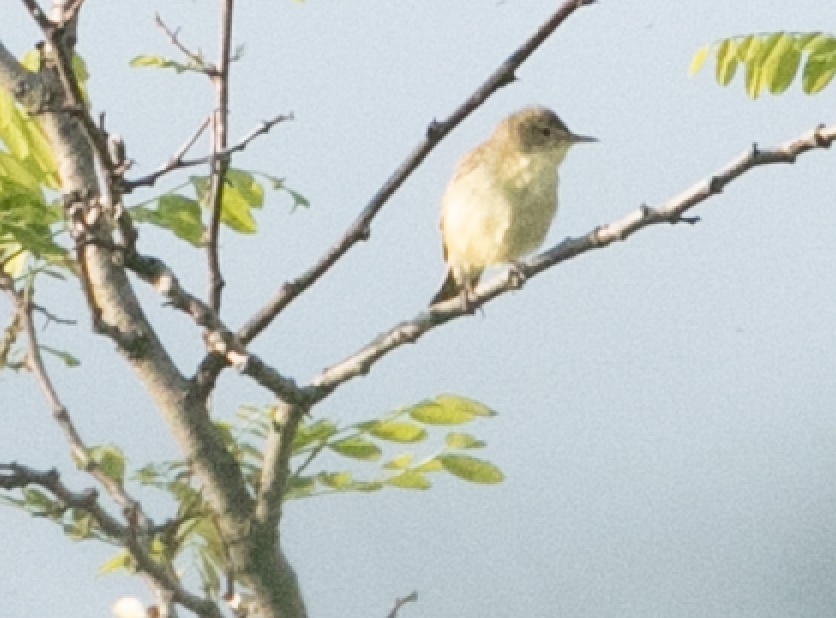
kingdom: Animalia
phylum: Chordata
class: Aves
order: Passeriformes
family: Acrocephalidae
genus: Hippolais
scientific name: Hippolais polyglotta
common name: Melodious warbler
